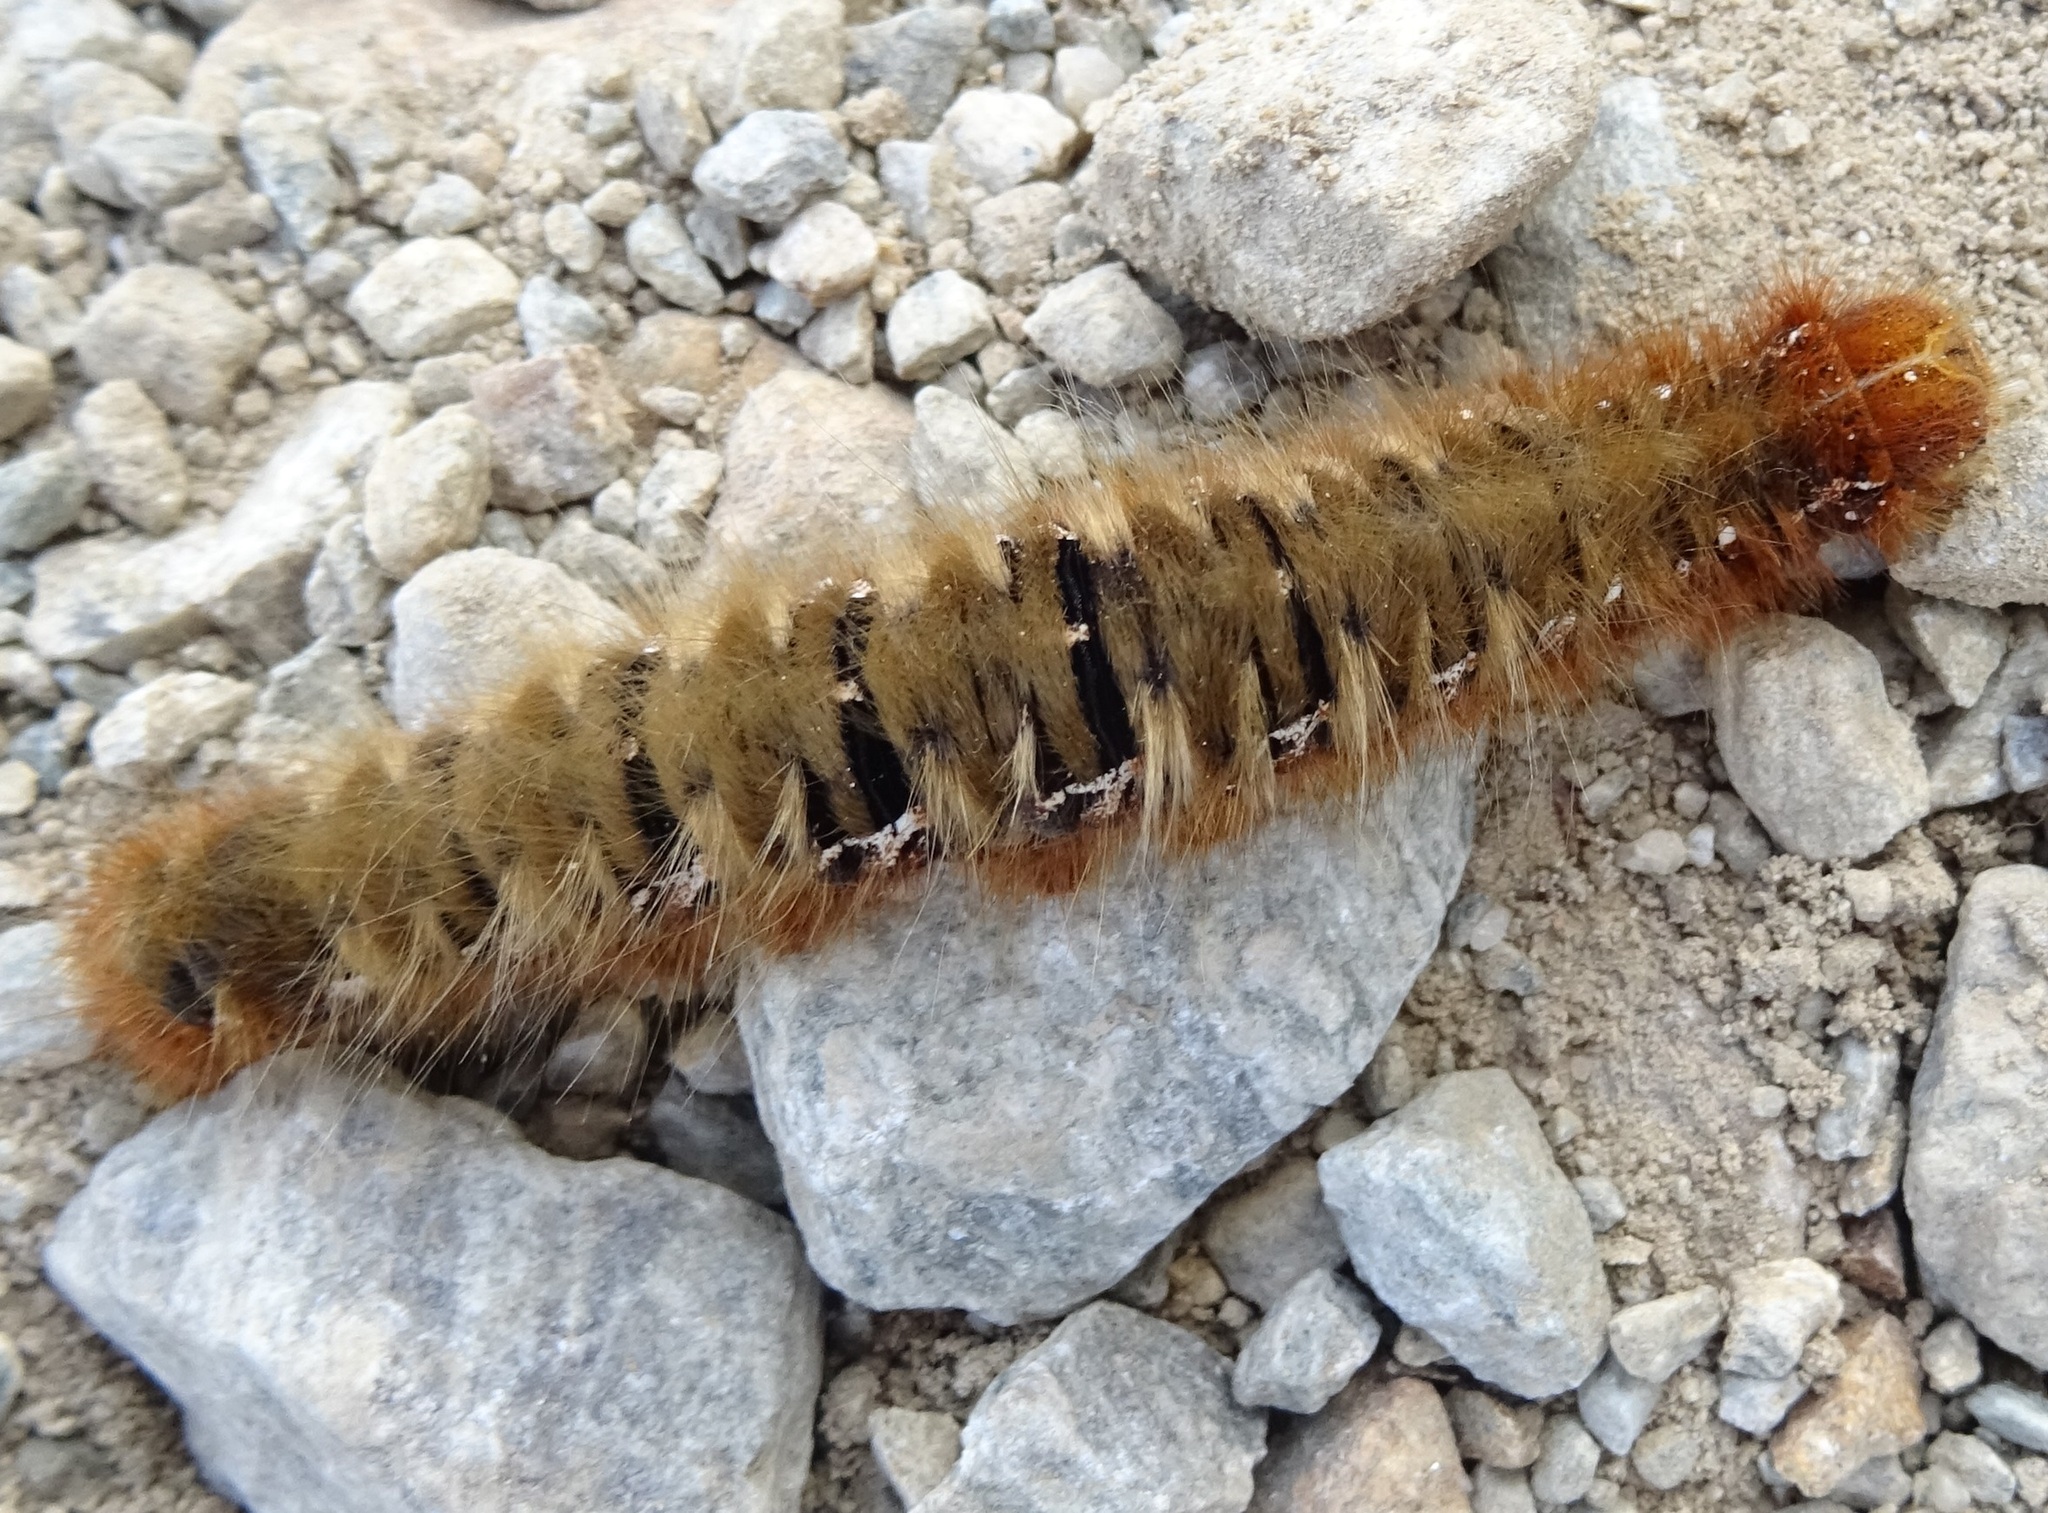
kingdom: Animalia
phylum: Arthropoda
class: Insecta
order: Lepidoptera
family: Lasiocampidae
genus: Lasiocampa
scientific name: Lasiocampa quercus
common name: Oak eggar
